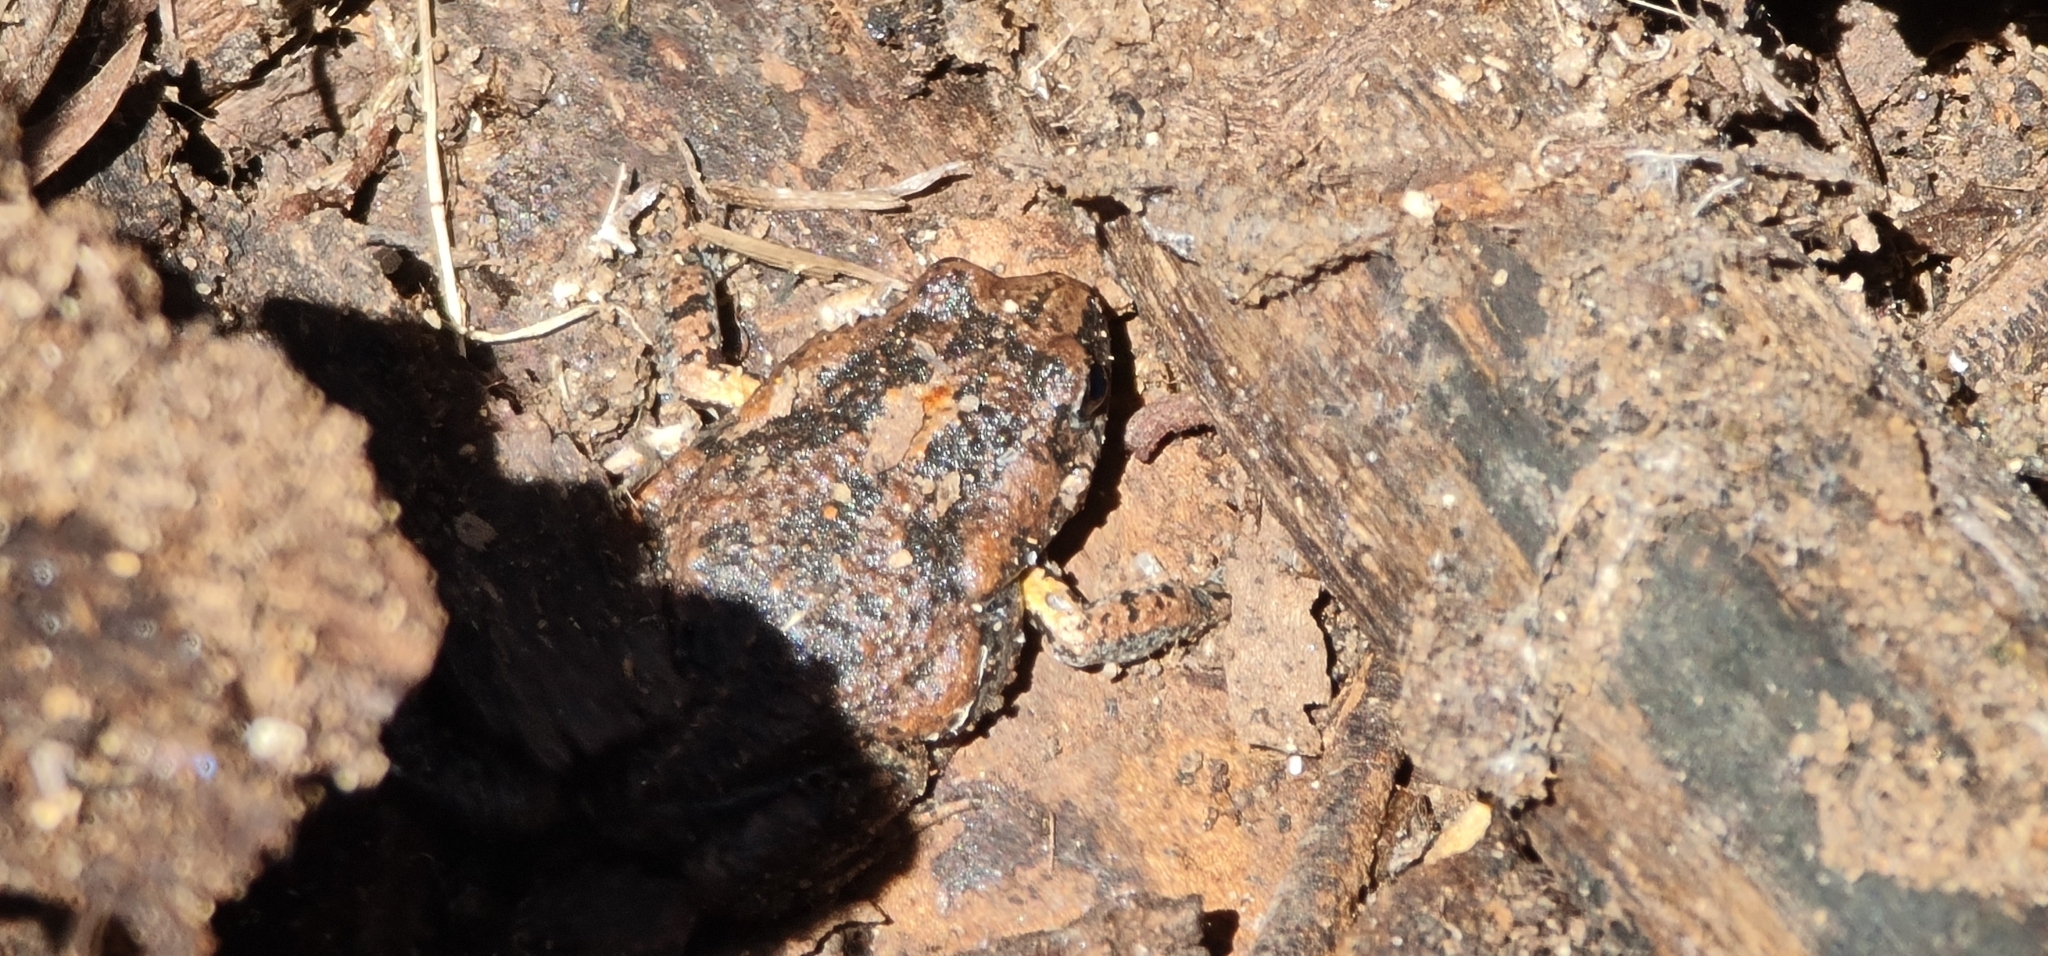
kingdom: Animalia
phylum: Chordata
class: Amphibia
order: Anura
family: Myobatrachidae
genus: Uperoleia
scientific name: Uperoleia laevigata
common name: Smooth toadlet
